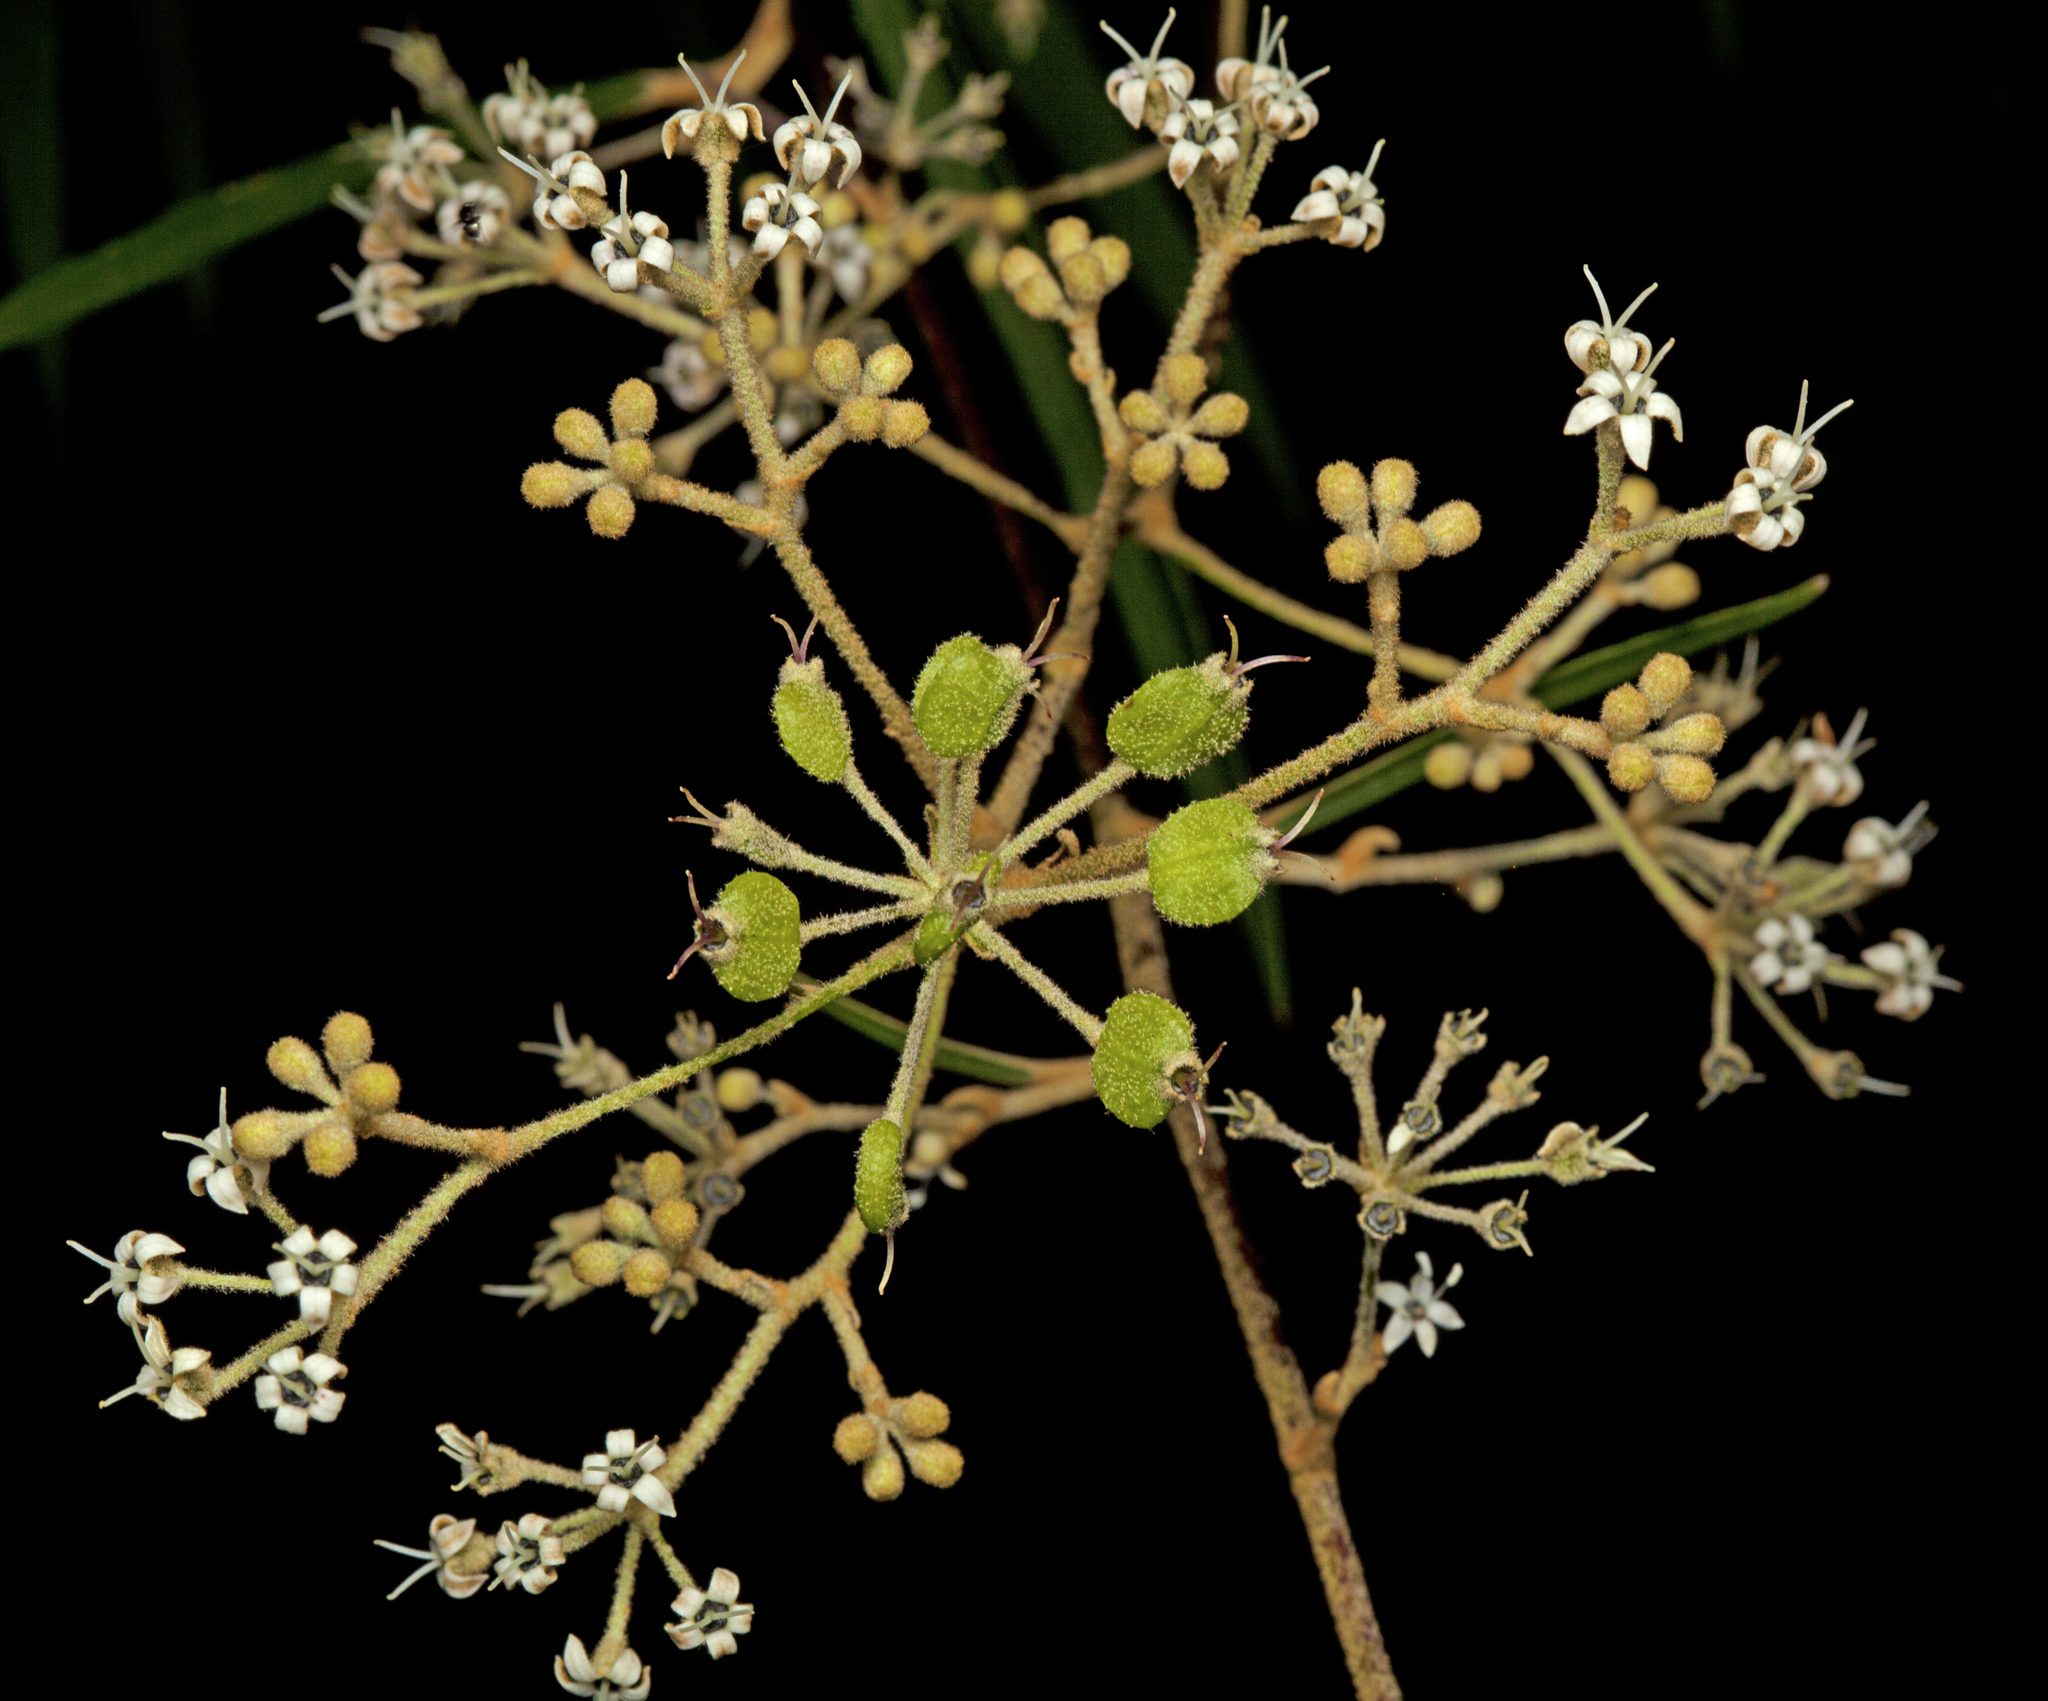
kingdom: Plantae
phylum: Tracheophyta
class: Magnoliopsida
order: Apiales
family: Araliaceae
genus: Astrotricha
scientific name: Astrotricha longifolia
